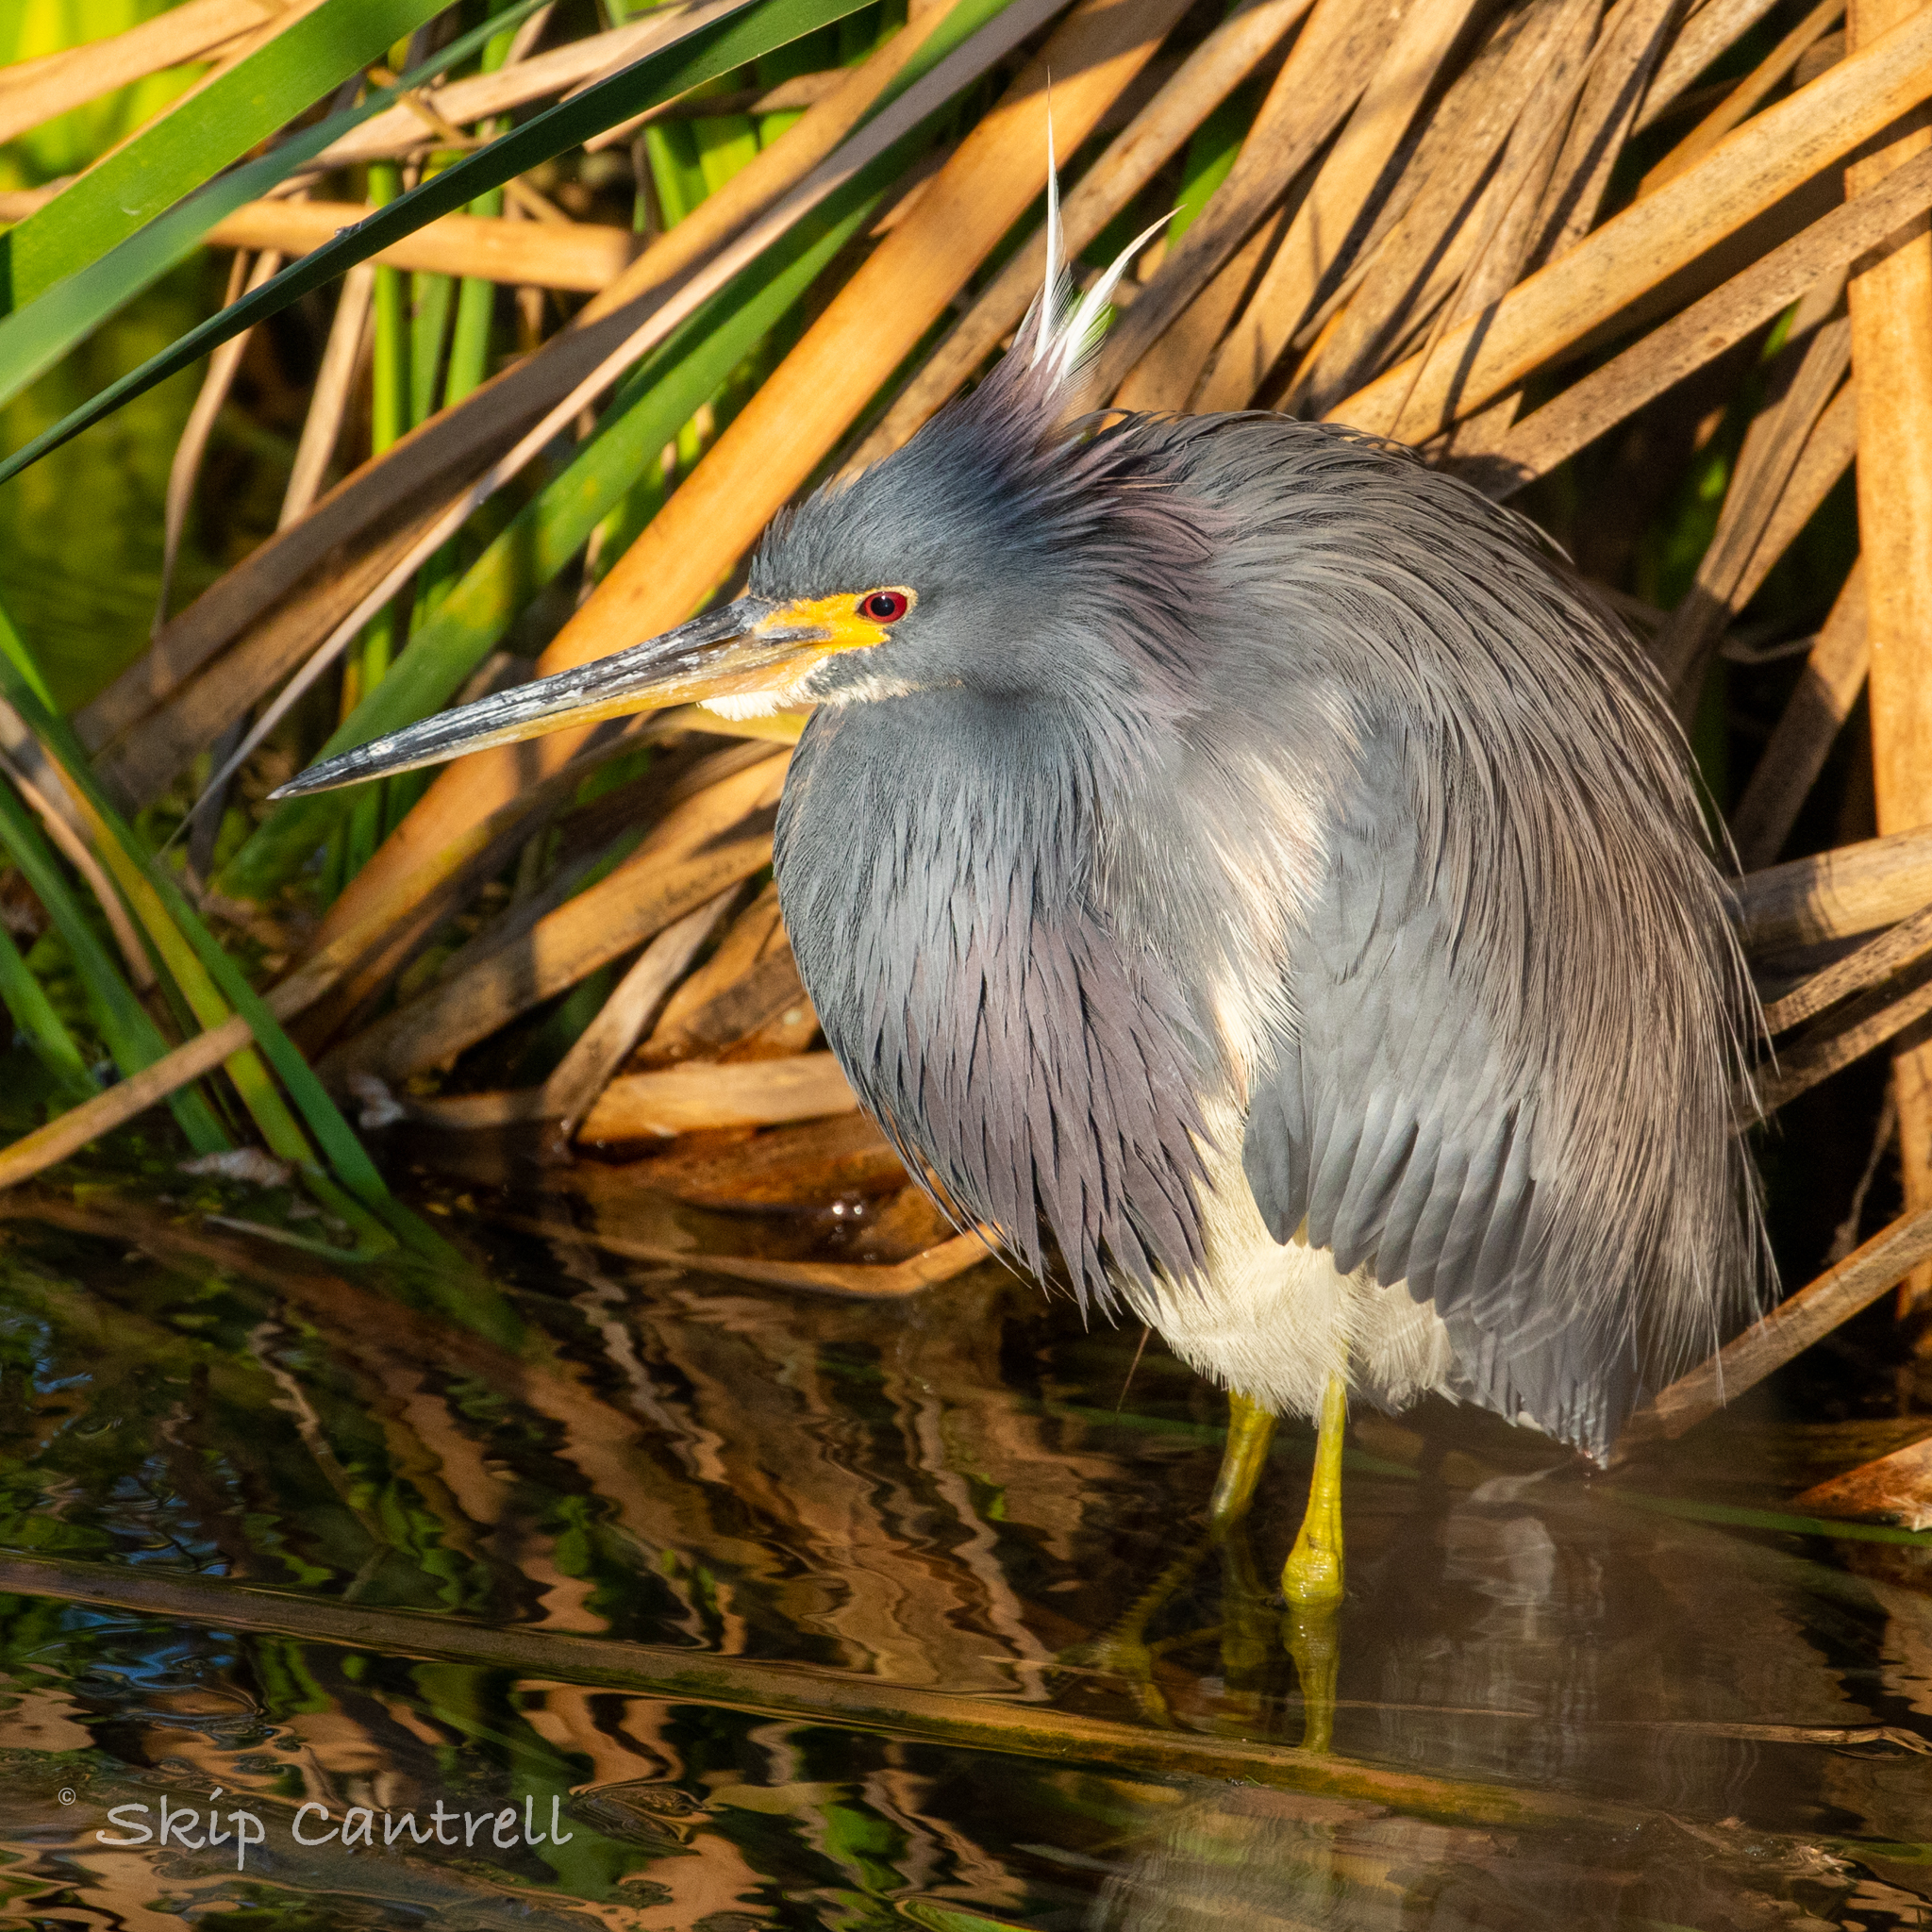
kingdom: Animalia
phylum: Chordata
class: Aves
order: Pelecaniformes
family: Ardeidae
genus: Egretta
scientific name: Egretta tricolor
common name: Tricolored heron
